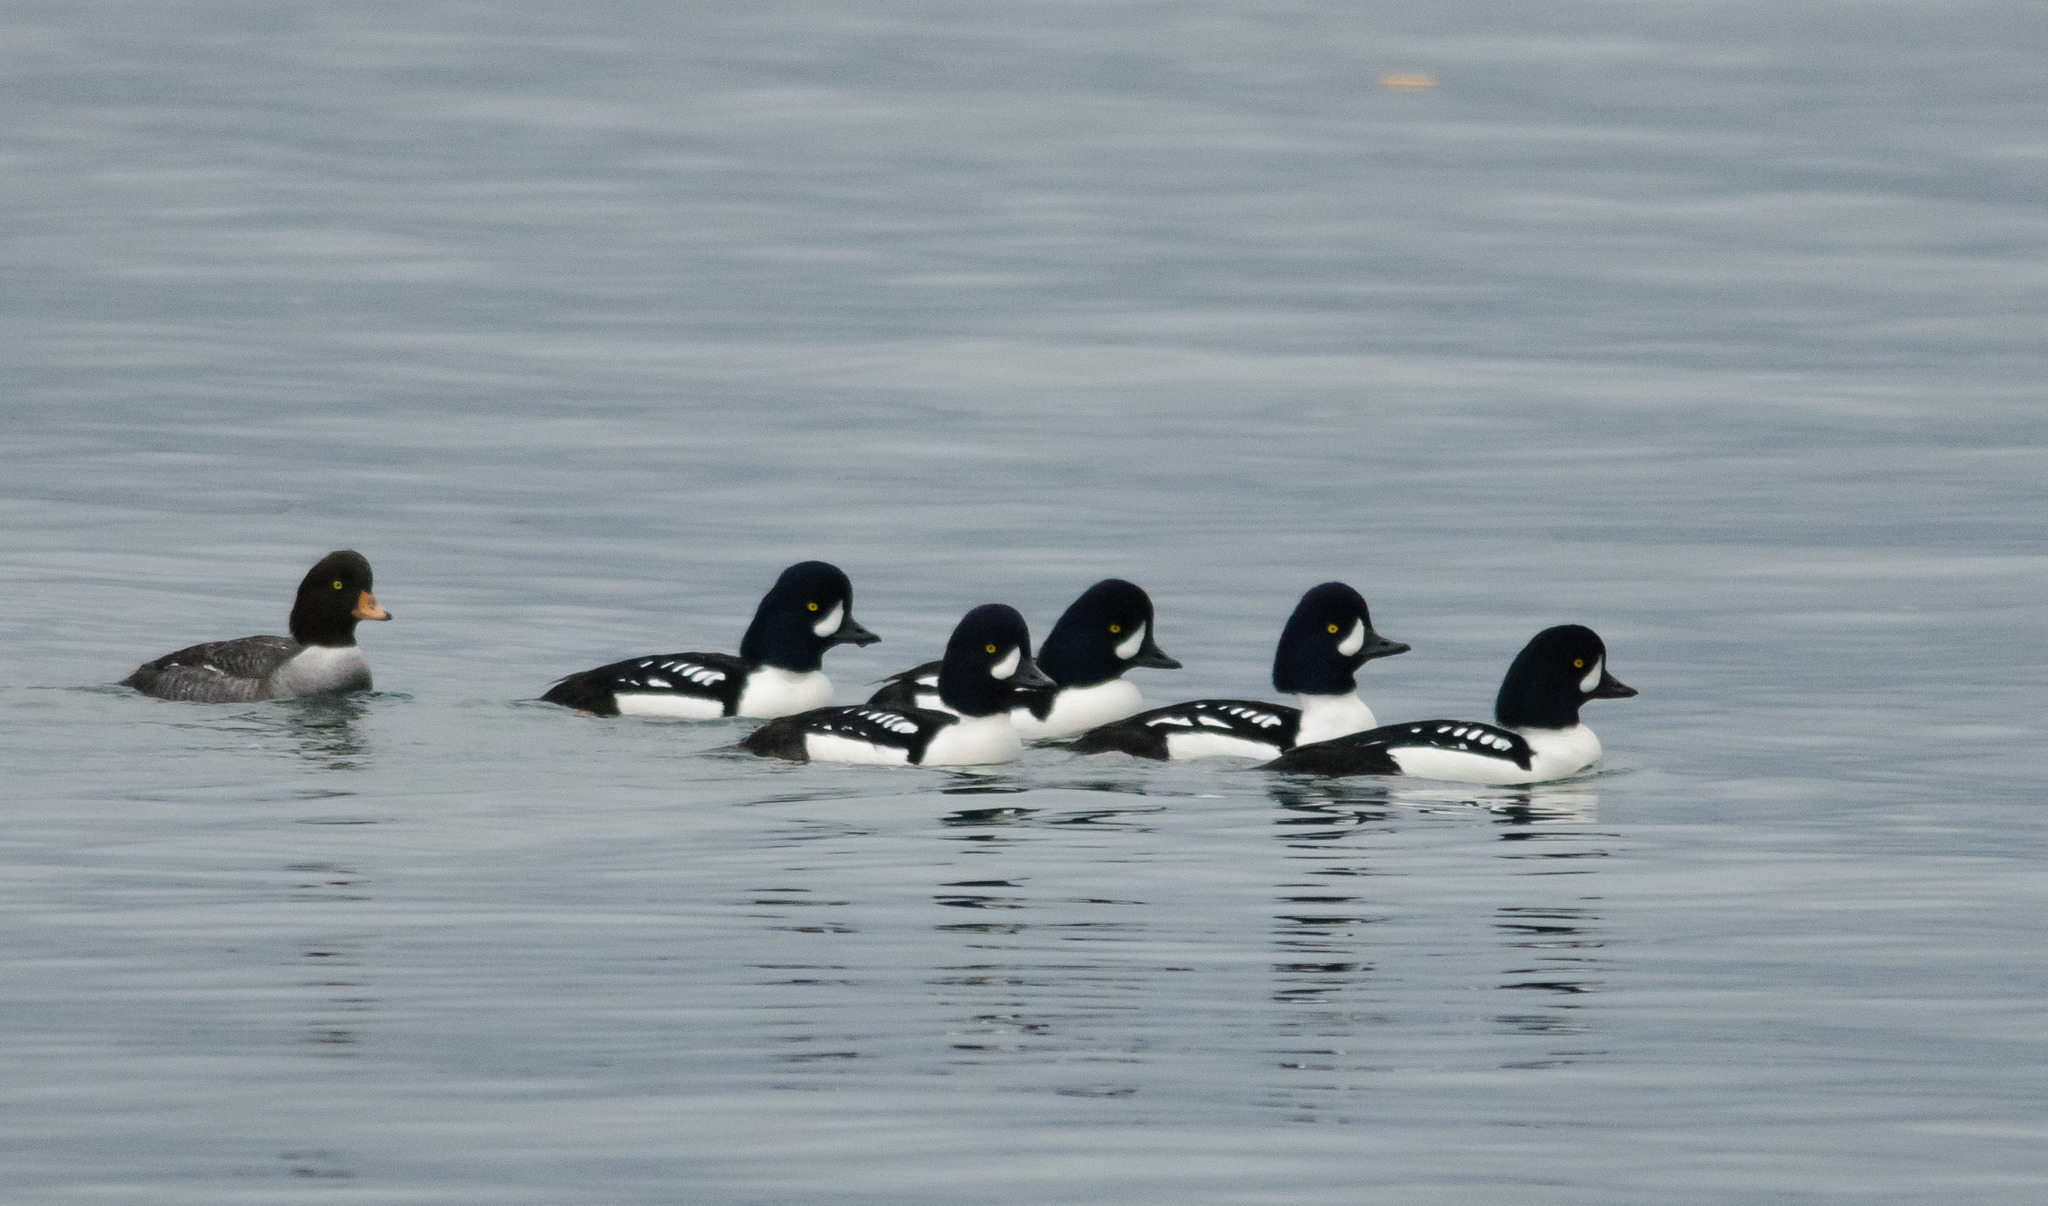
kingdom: Animalia
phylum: Chordata
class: Aves
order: Anseriformes
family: Anatidae
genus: Bucephala
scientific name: Bucephala islandica
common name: Barrow's goldeneye
